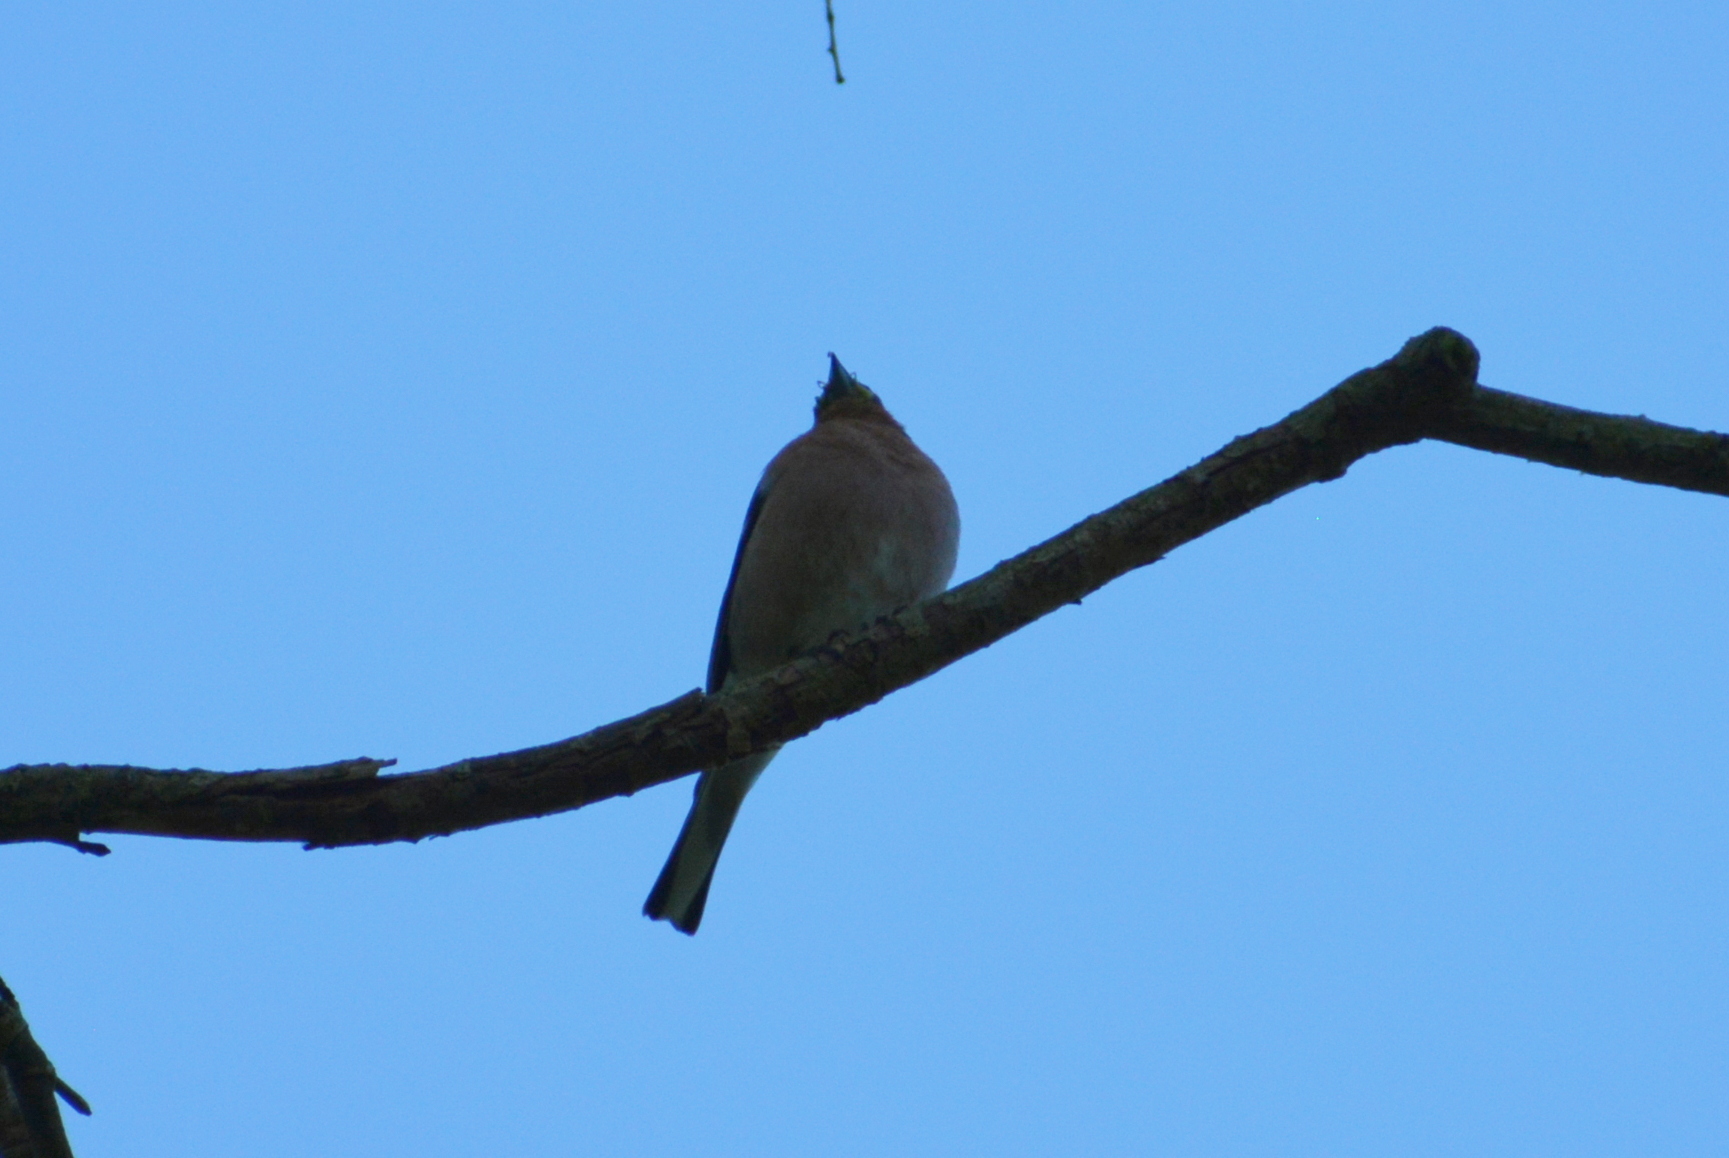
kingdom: Animalia
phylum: Chordata
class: Aves
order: Passeriformes
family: Fringillidae
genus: Fringilla
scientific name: Fringilla coelebs
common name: Common chaffinch
